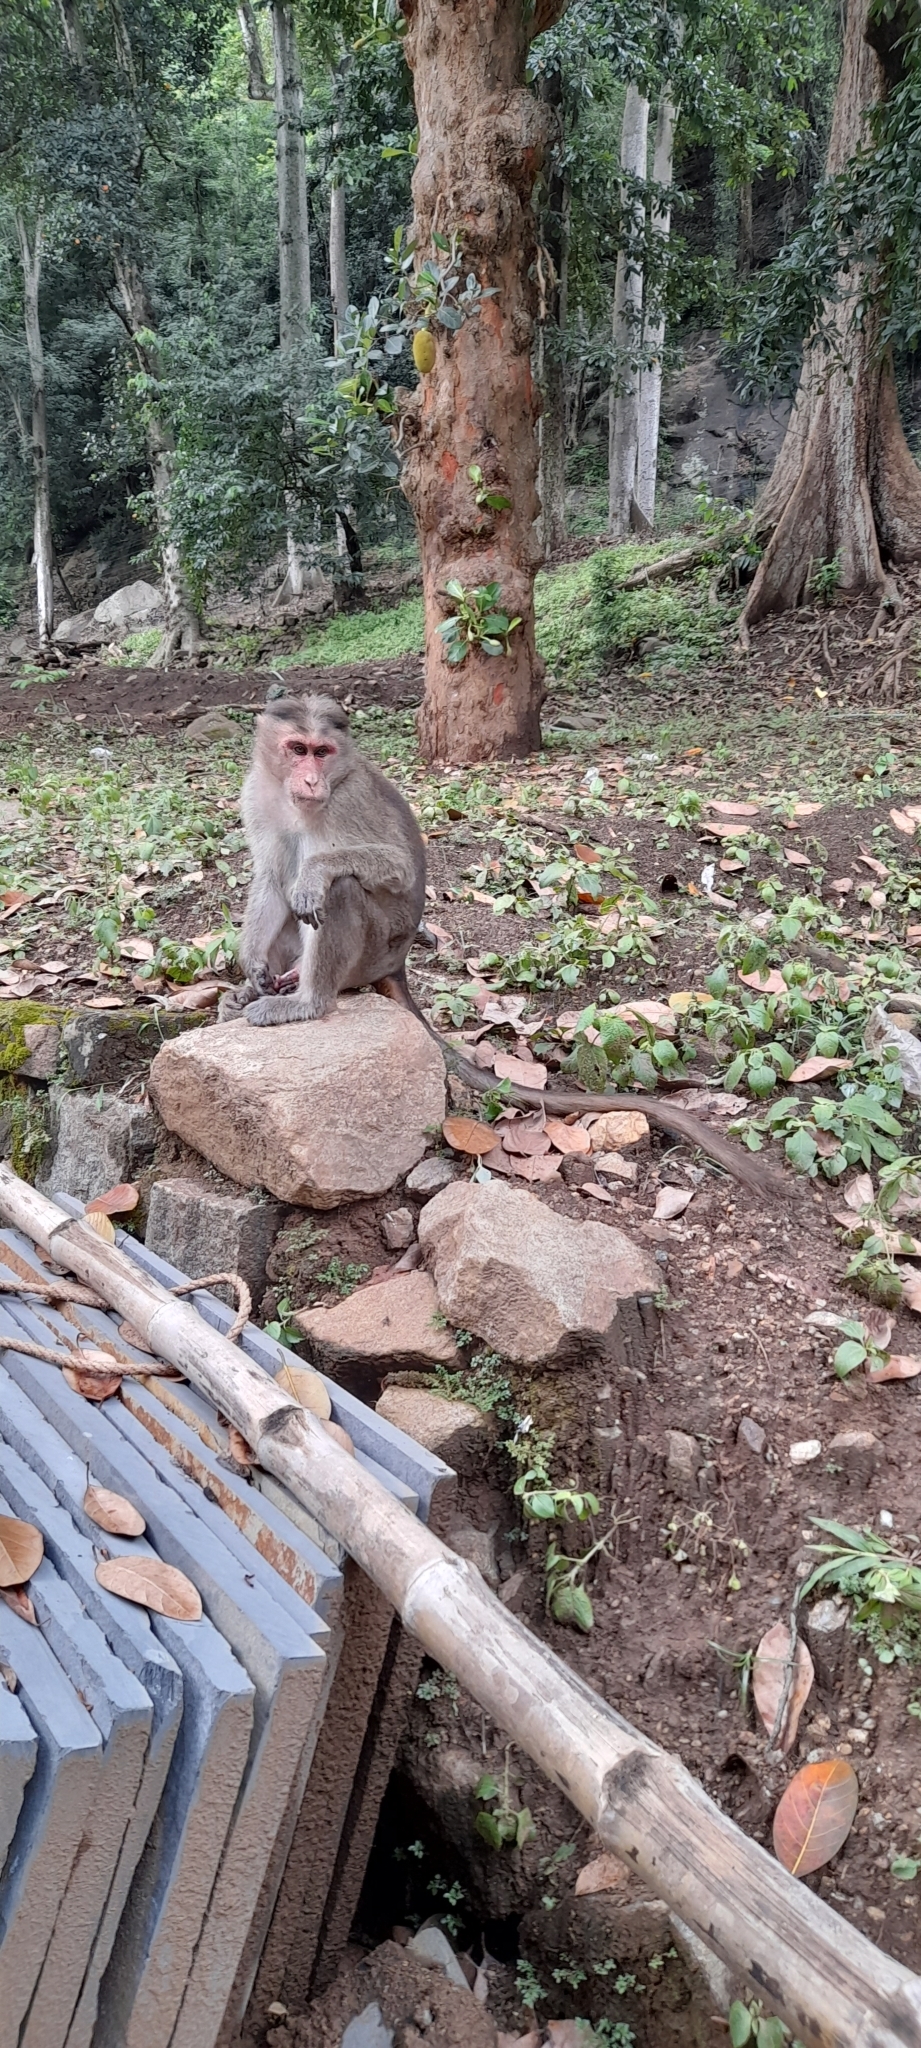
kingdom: Animalia
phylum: Chordata
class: Mammalia
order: Primates
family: Cercopithecidae
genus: Macaca
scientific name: Macaca radiata
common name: Bonnet macaque
